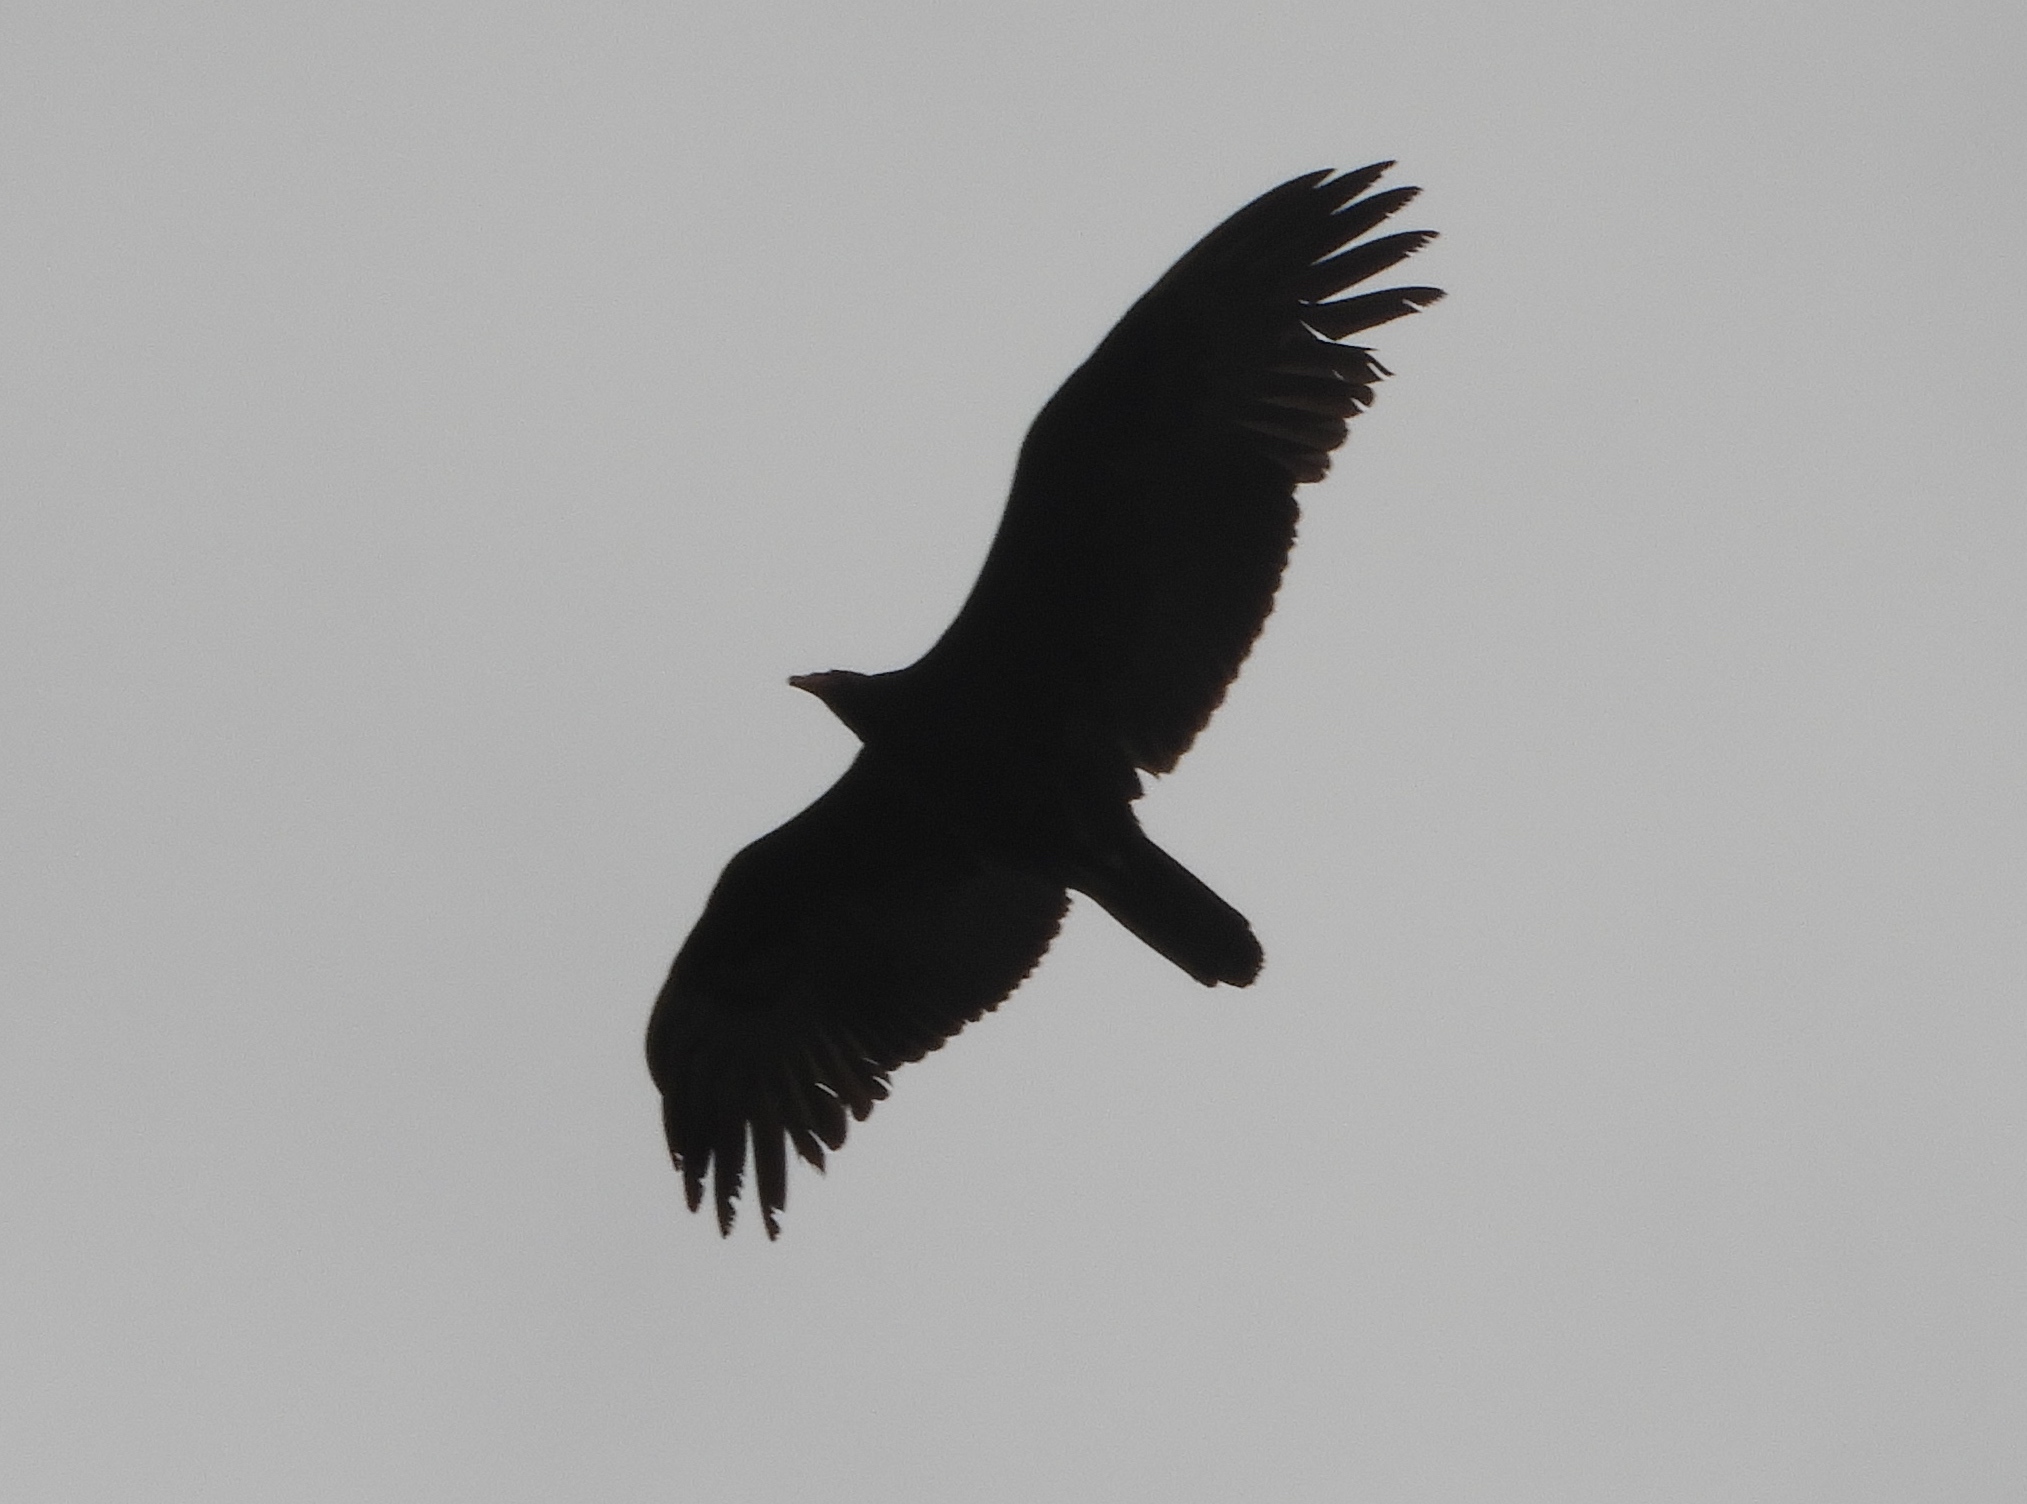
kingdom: Animalia
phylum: Chordata
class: Aves
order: Accipitriformes
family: Cathartidae
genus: Cathartes
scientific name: Cathartes aura
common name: Turkey vulture
